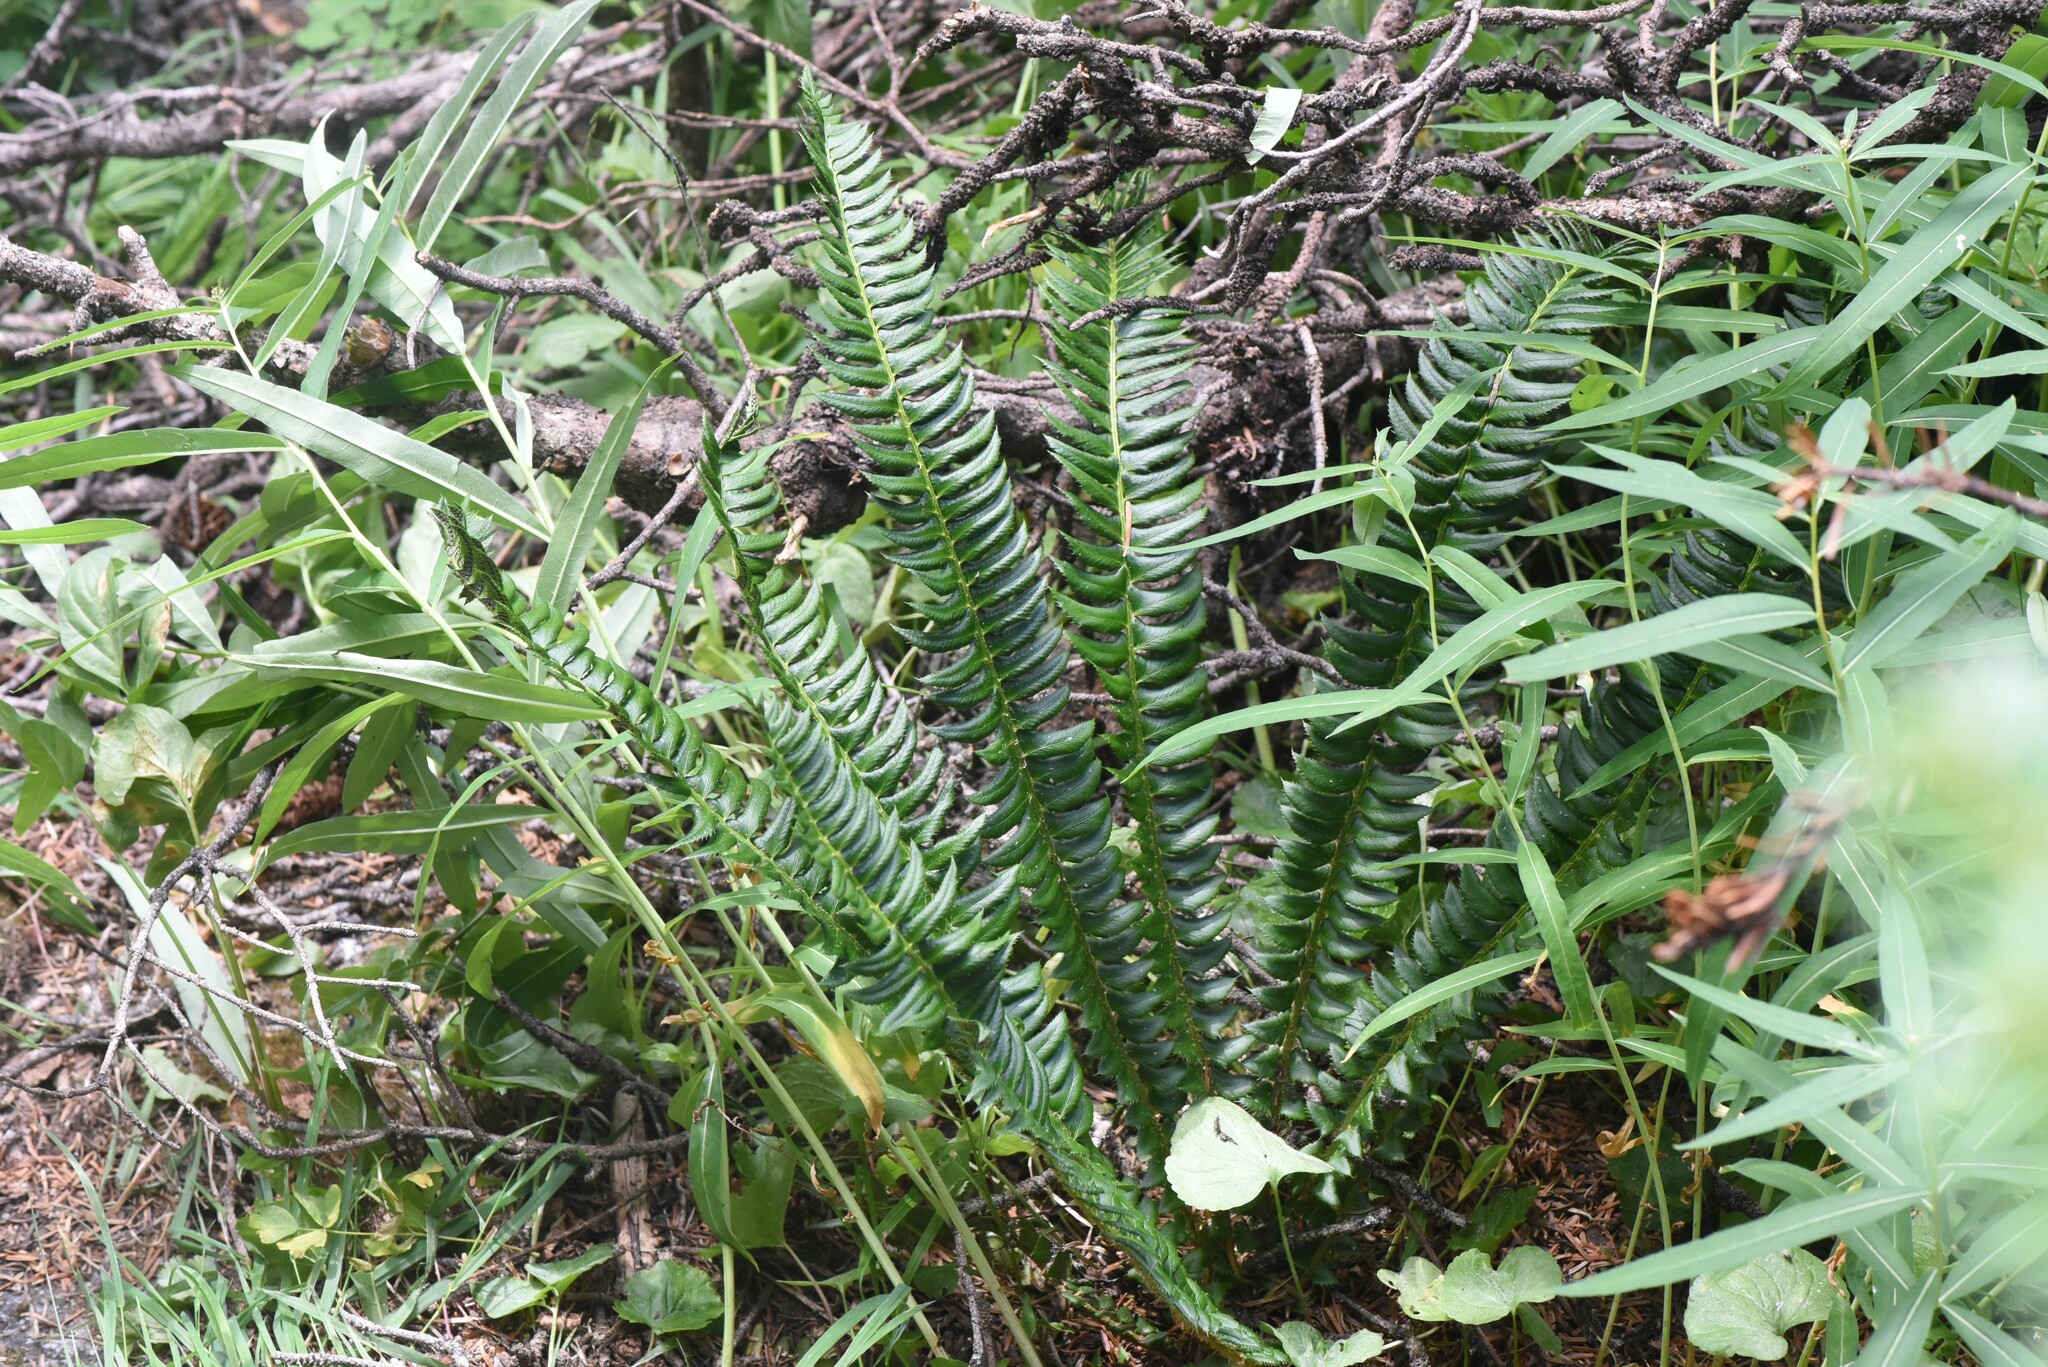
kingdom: Plantae
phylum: Tracheophyta
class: Polypodiopsida
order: Polypodiales
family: Dryopteridaceae
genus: Polystichum
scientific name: Polystichum lonchitis
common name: Holly fern
